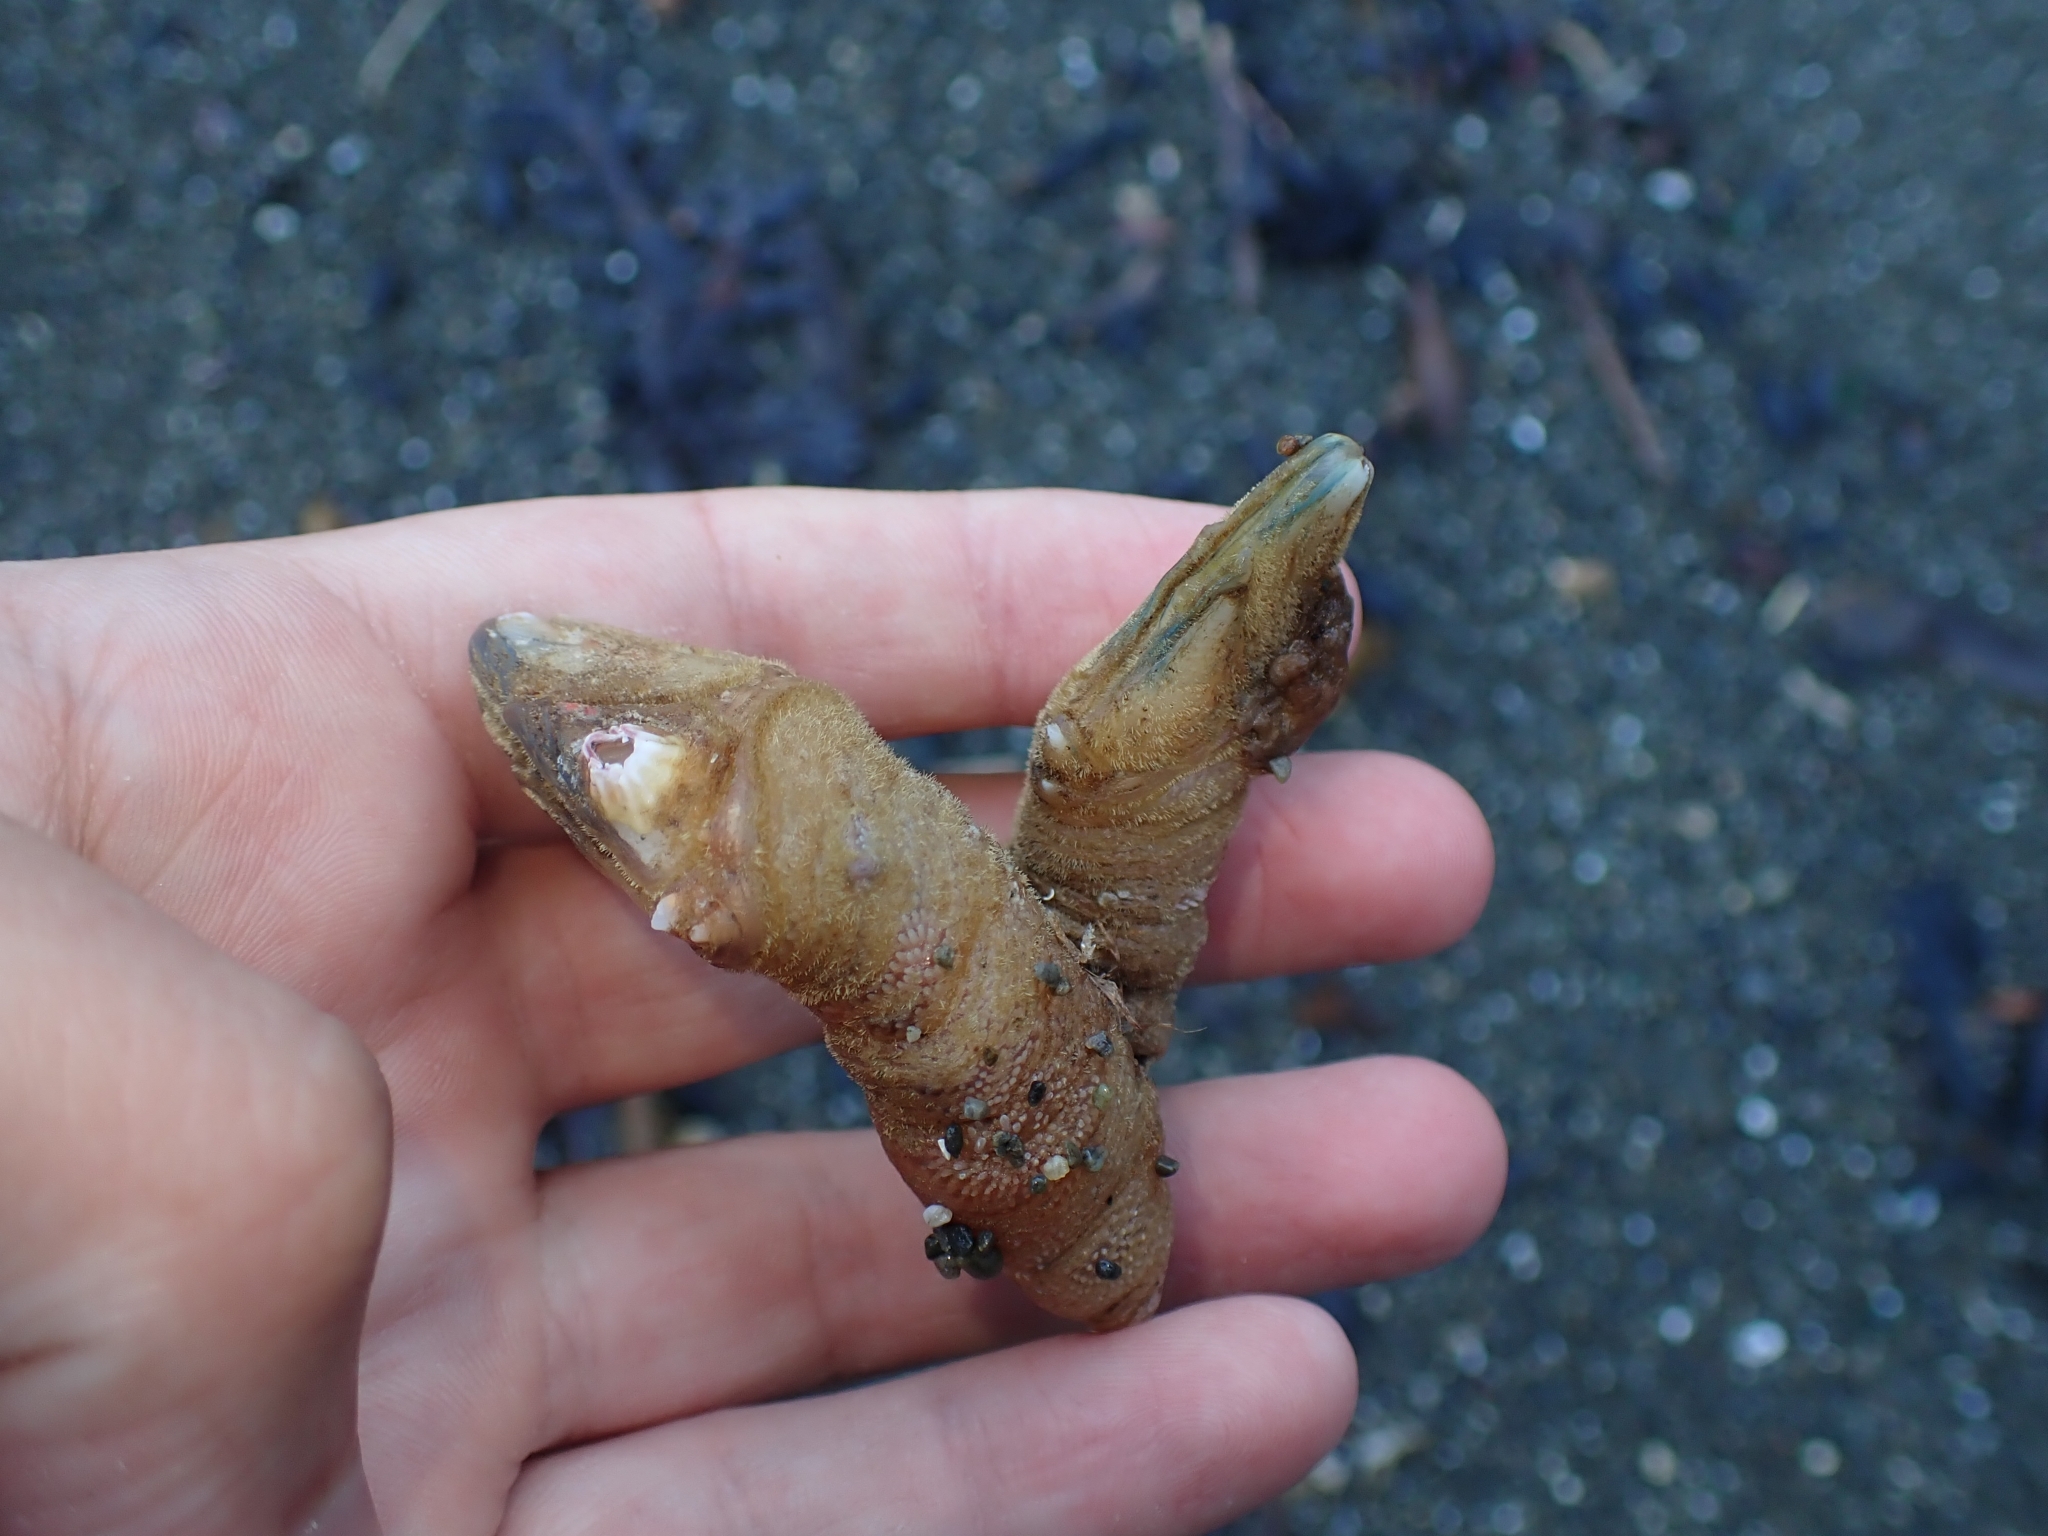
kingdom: Animalia
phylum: Arthropoda
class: Maxillopoda
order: Pedunculata
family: Calanticidae
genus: Calantica
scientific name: Calantica villosa
